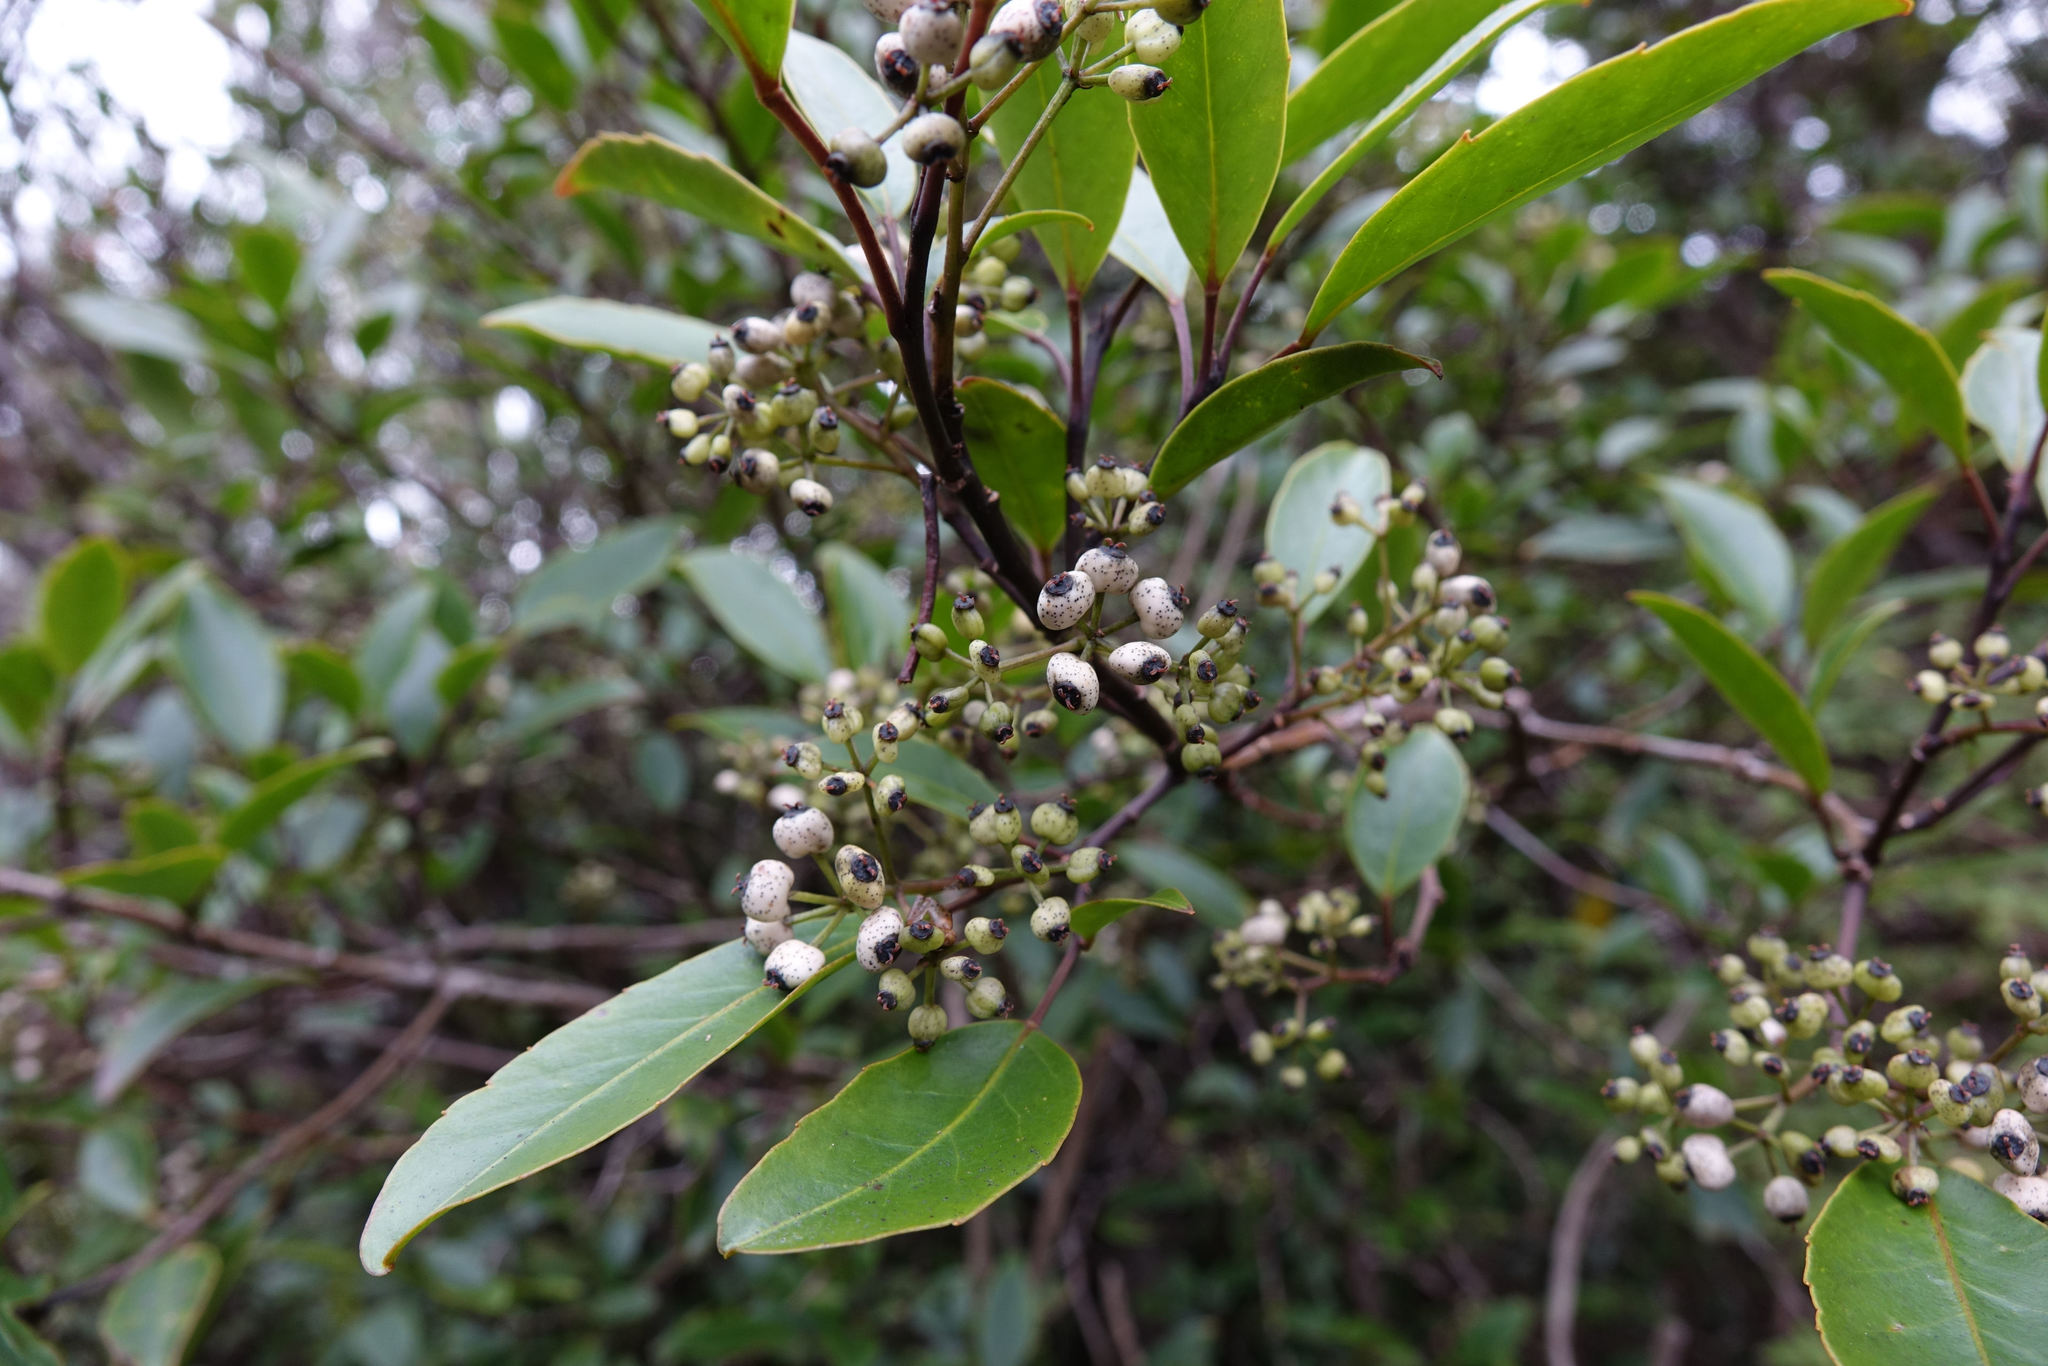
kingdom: Plantae
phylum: Tracheophyta
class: Magnoliopsida
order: Apiales
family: Araliaceae
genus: Raukaua
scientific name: Raukaua simplex
